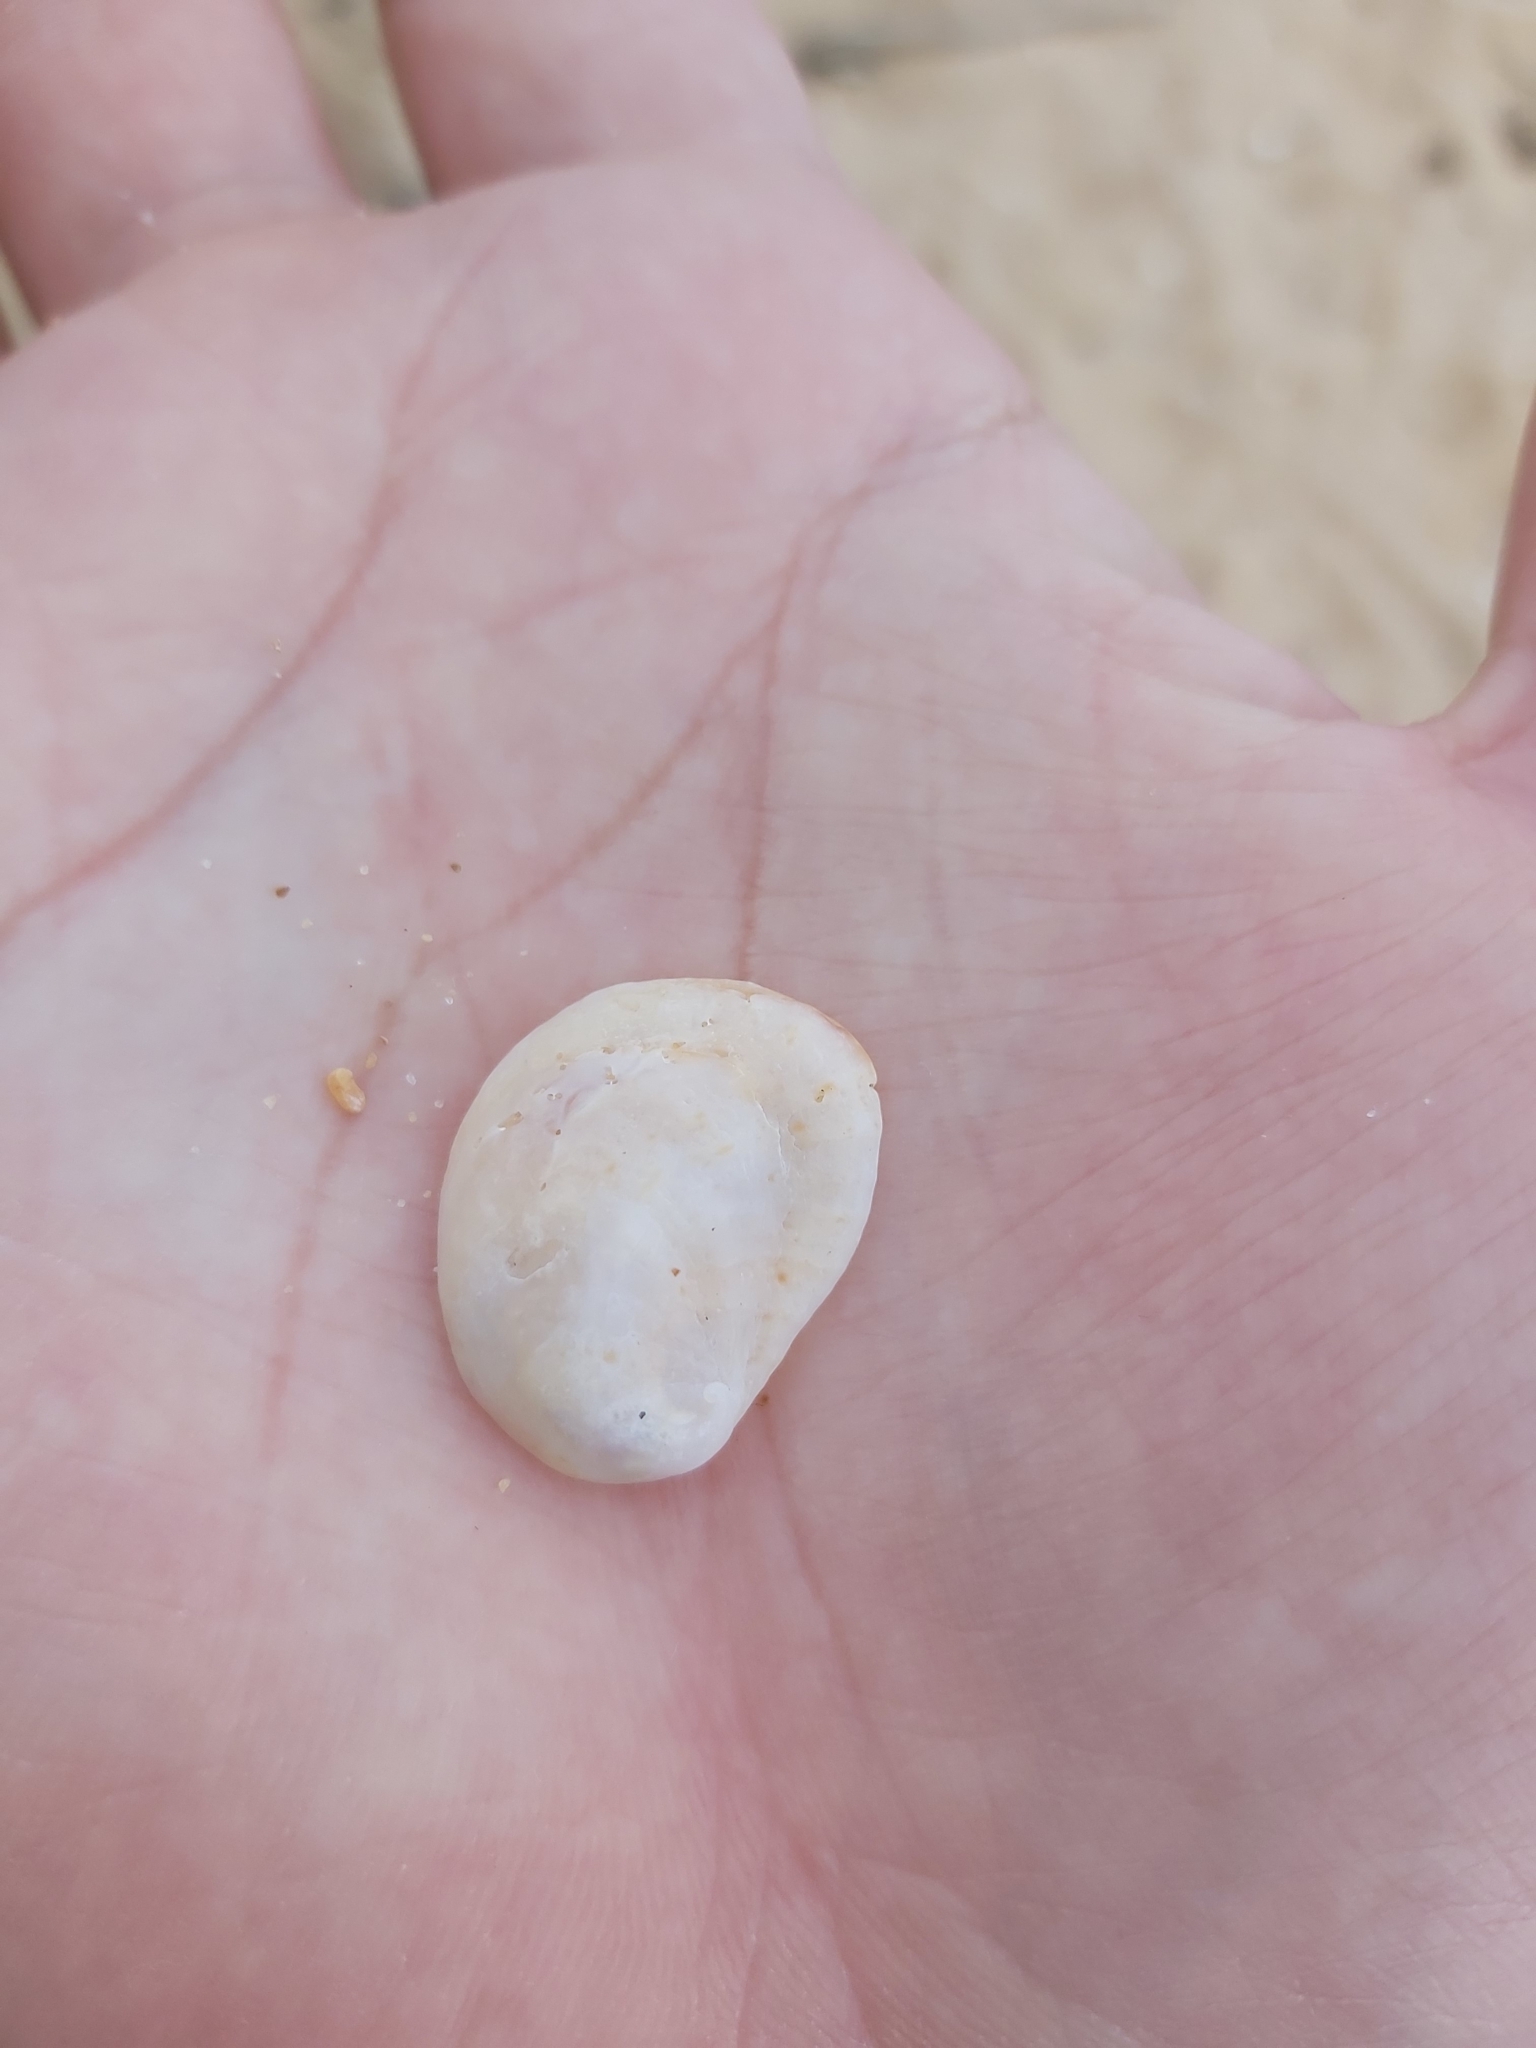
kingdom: Animalia
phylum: Mollusca
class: Gastropoda
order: Littorinimorpha
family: Calyptraeidae
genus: Bostrycapulus
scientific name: Bostrycapulus pritzkeri
